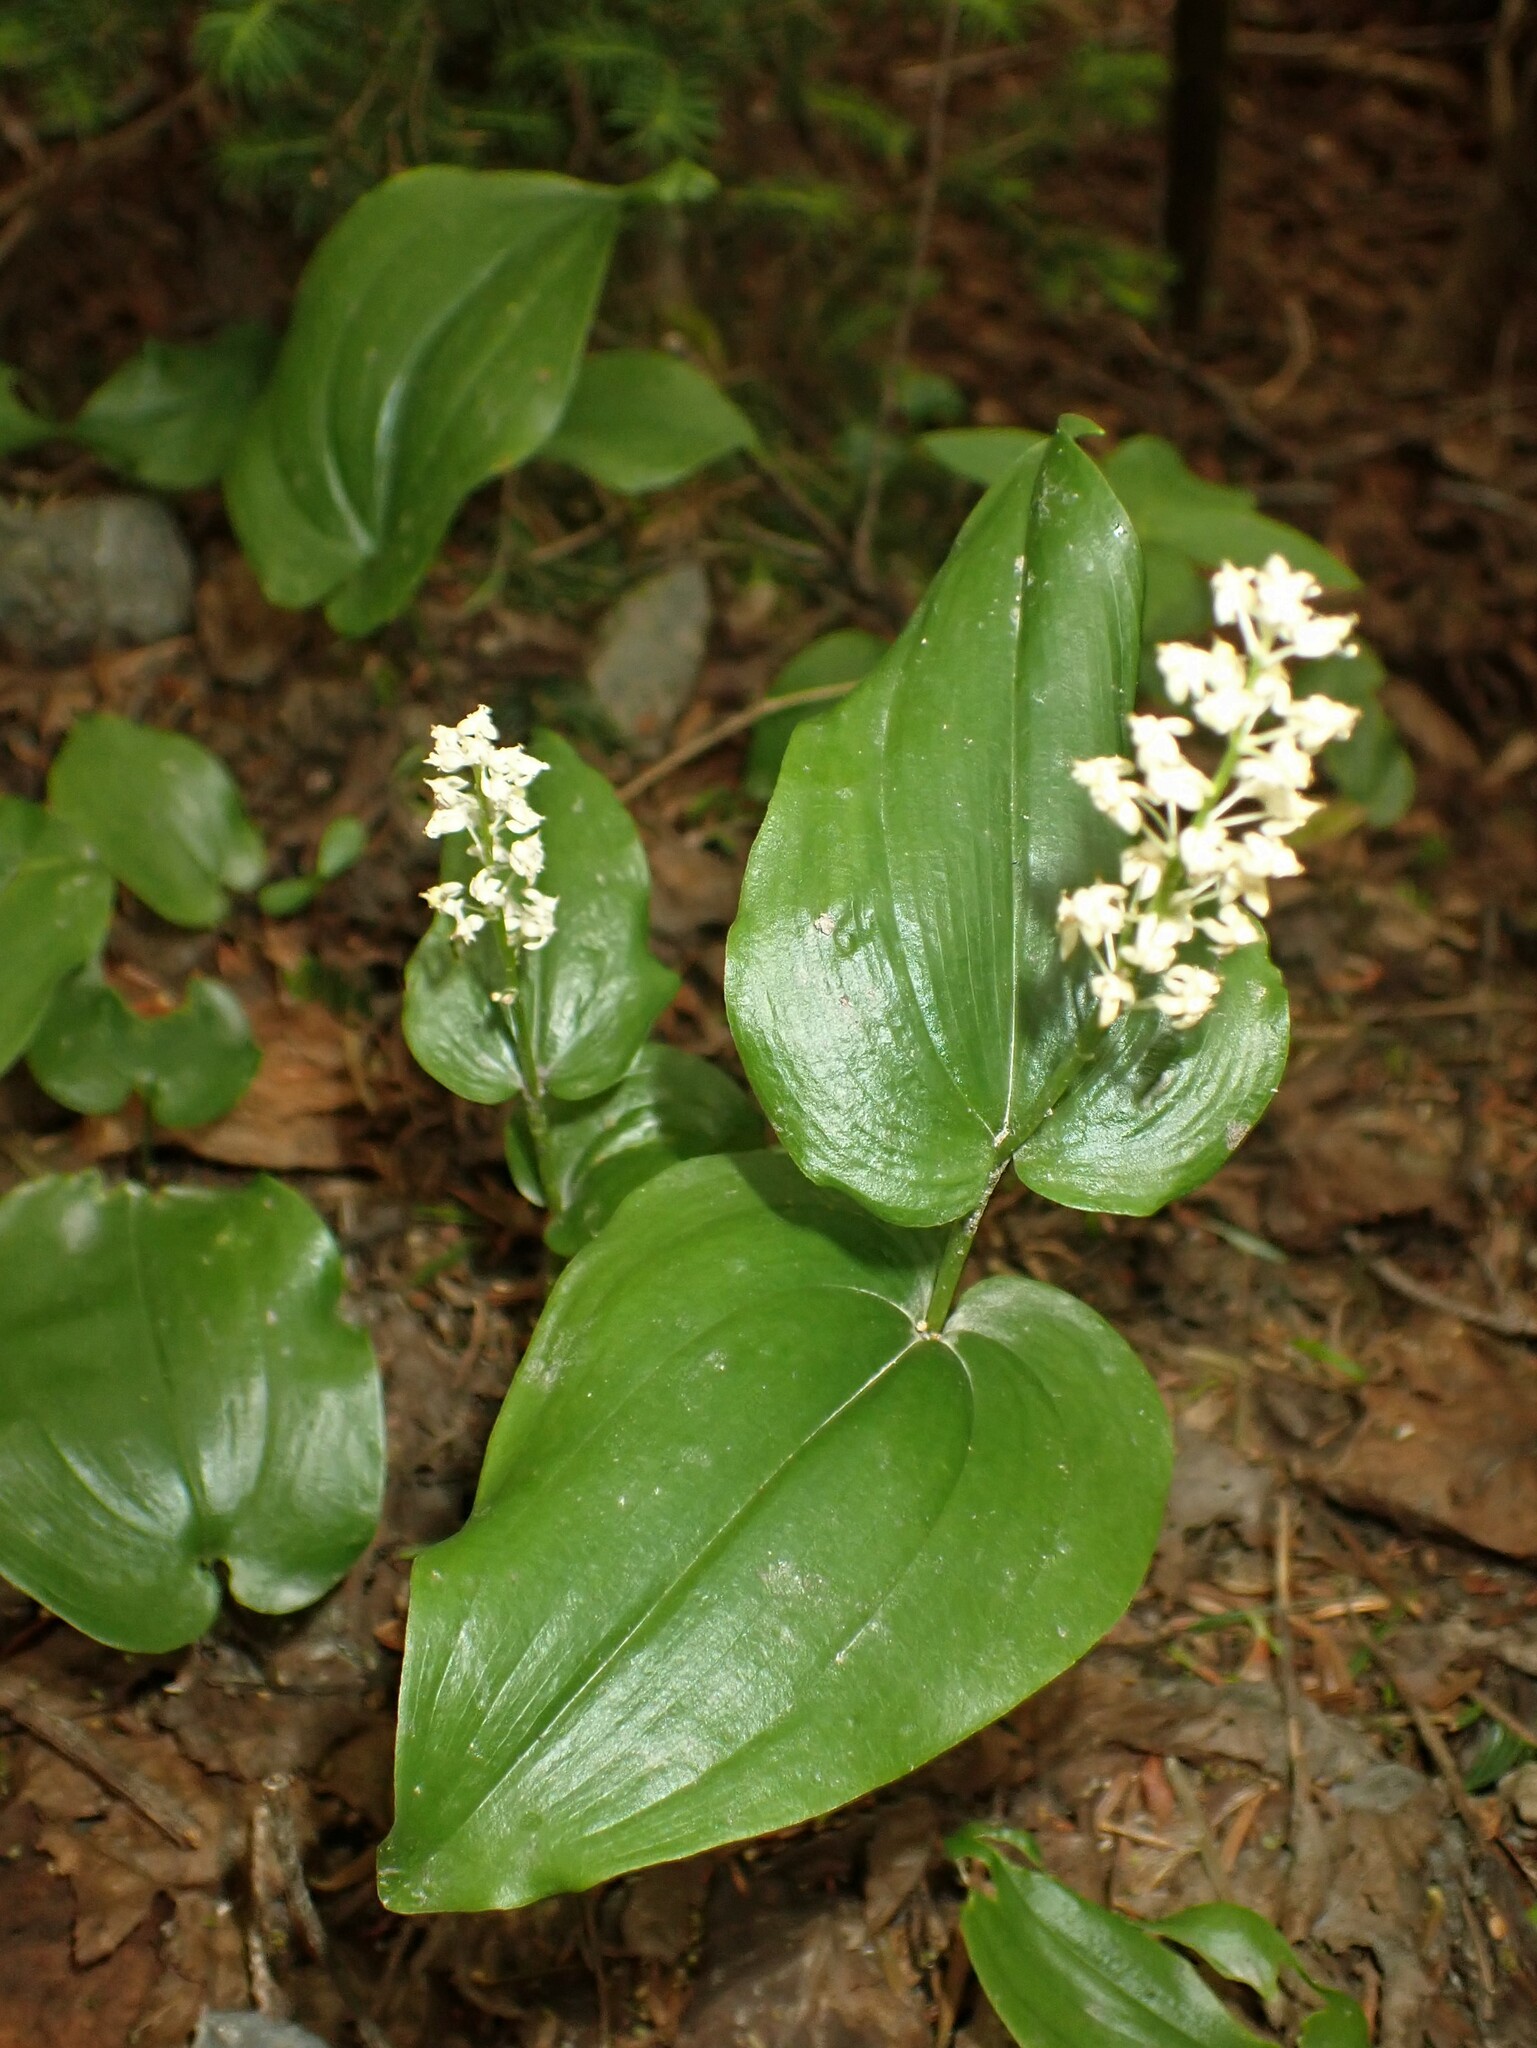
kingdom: Plantae
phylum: Tracheophyta
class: Liliopsida
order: Asparagales
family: Asparagaceae
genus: Maianthemum
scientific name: Maianthemum canadense
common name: False lily-of-the-valley
